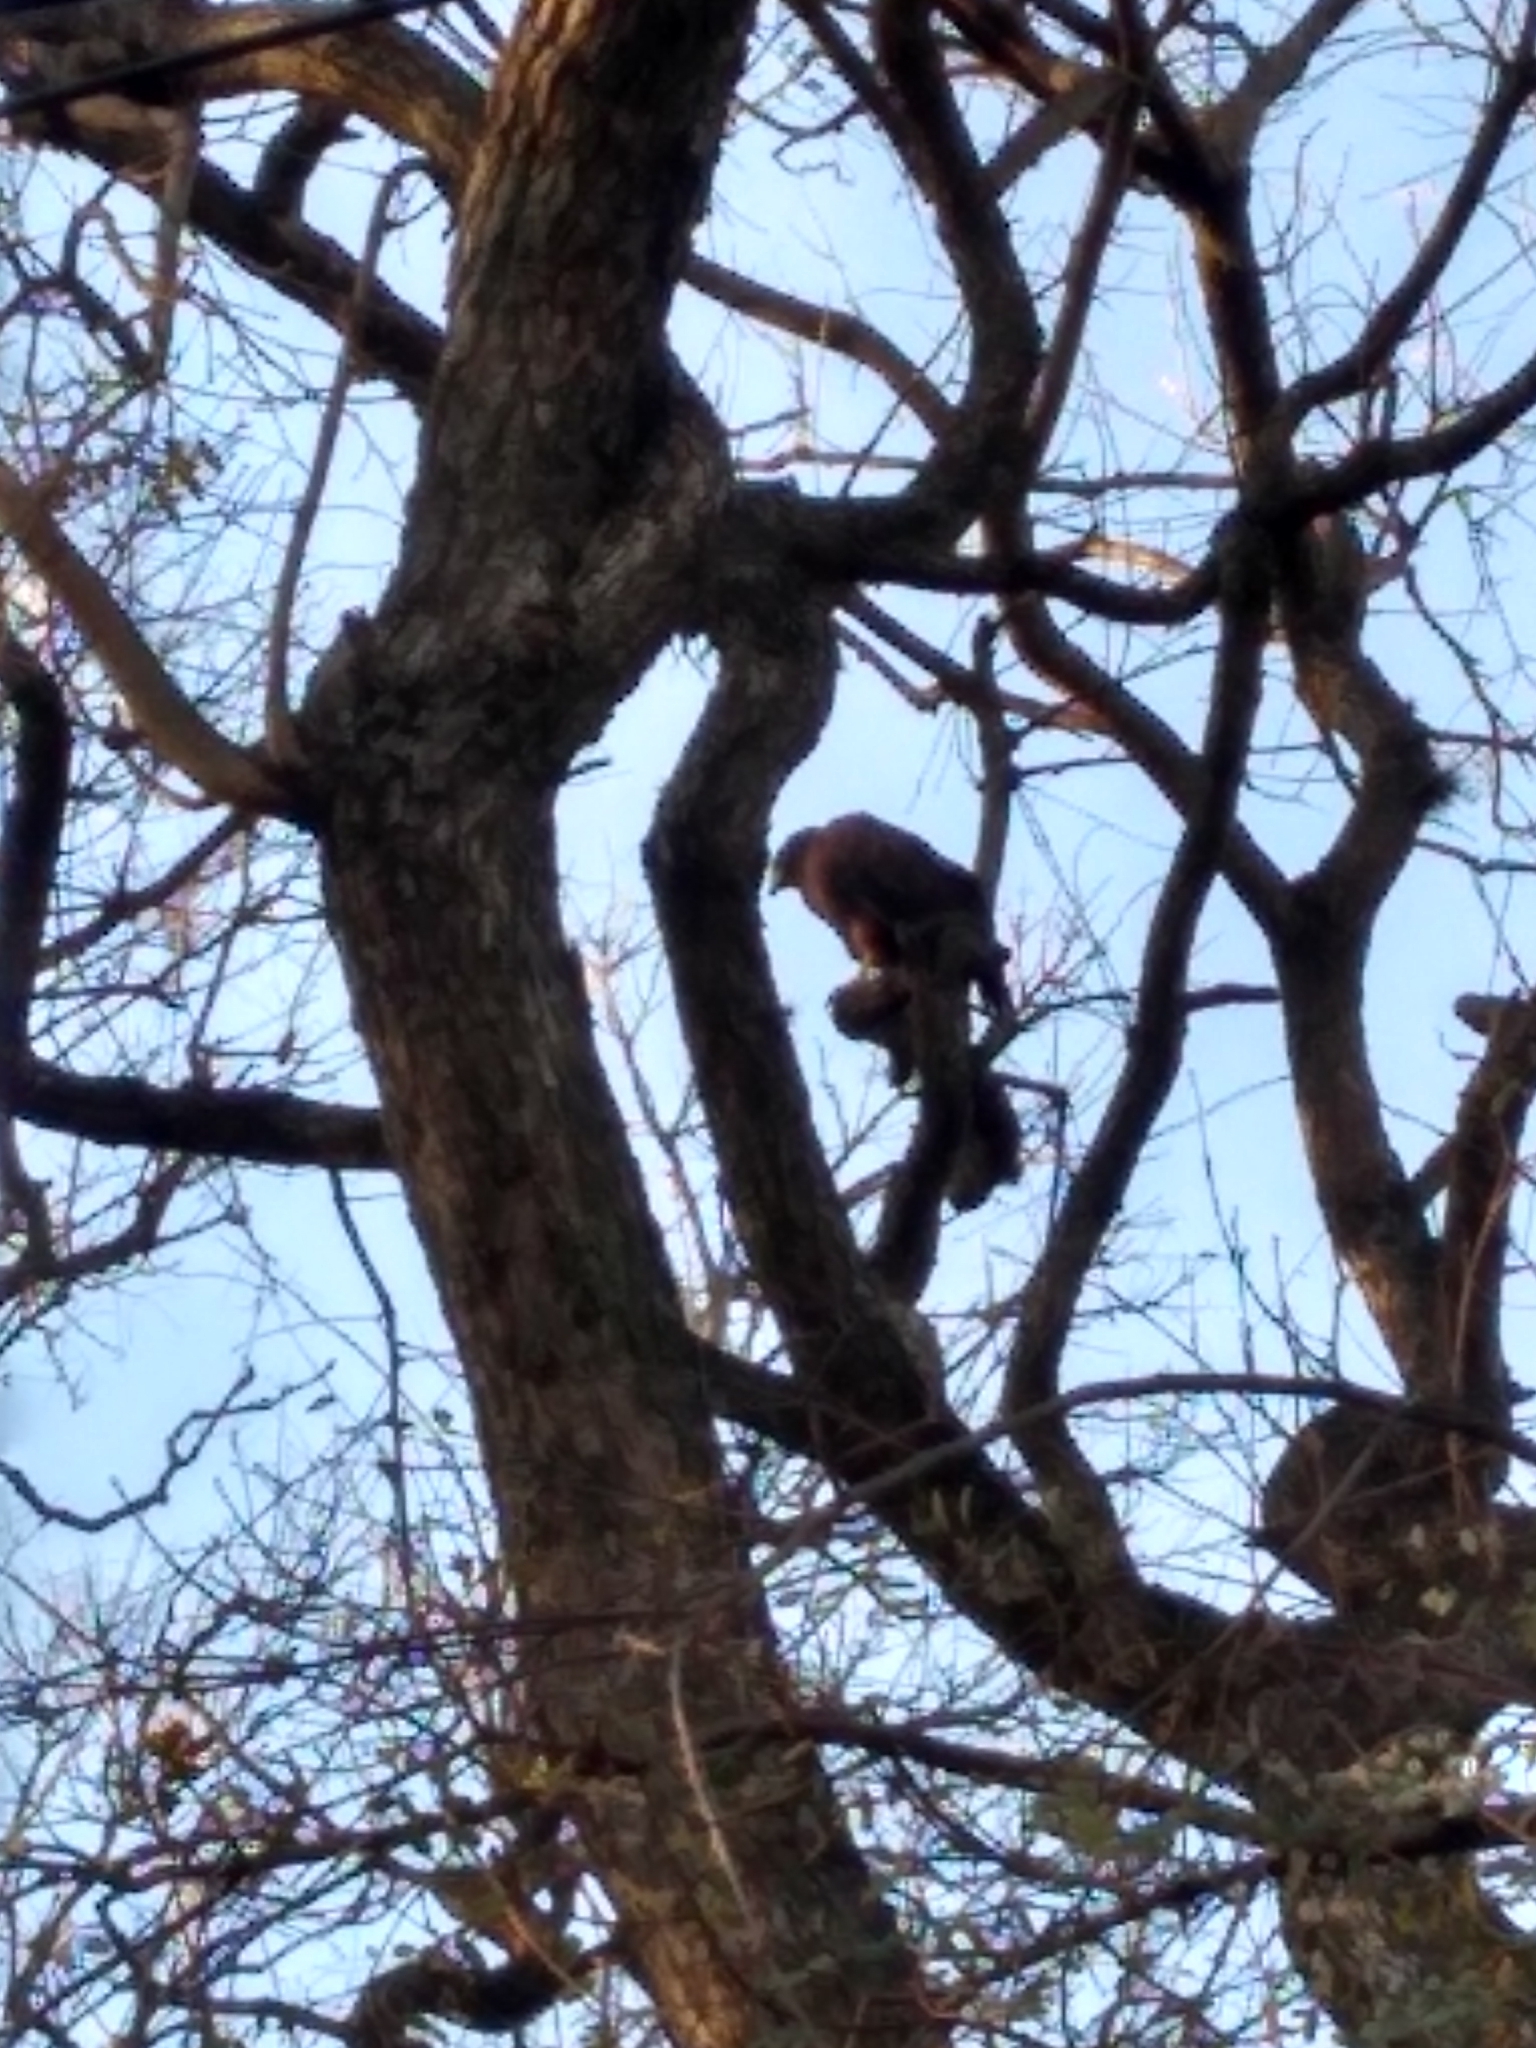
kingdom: Animalia
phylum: Chordata
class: Aves
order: Accipitriformes
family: Accipitridae
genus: Parabuteo
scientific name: Parabuteo unicinctus
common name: Harris's hawk
